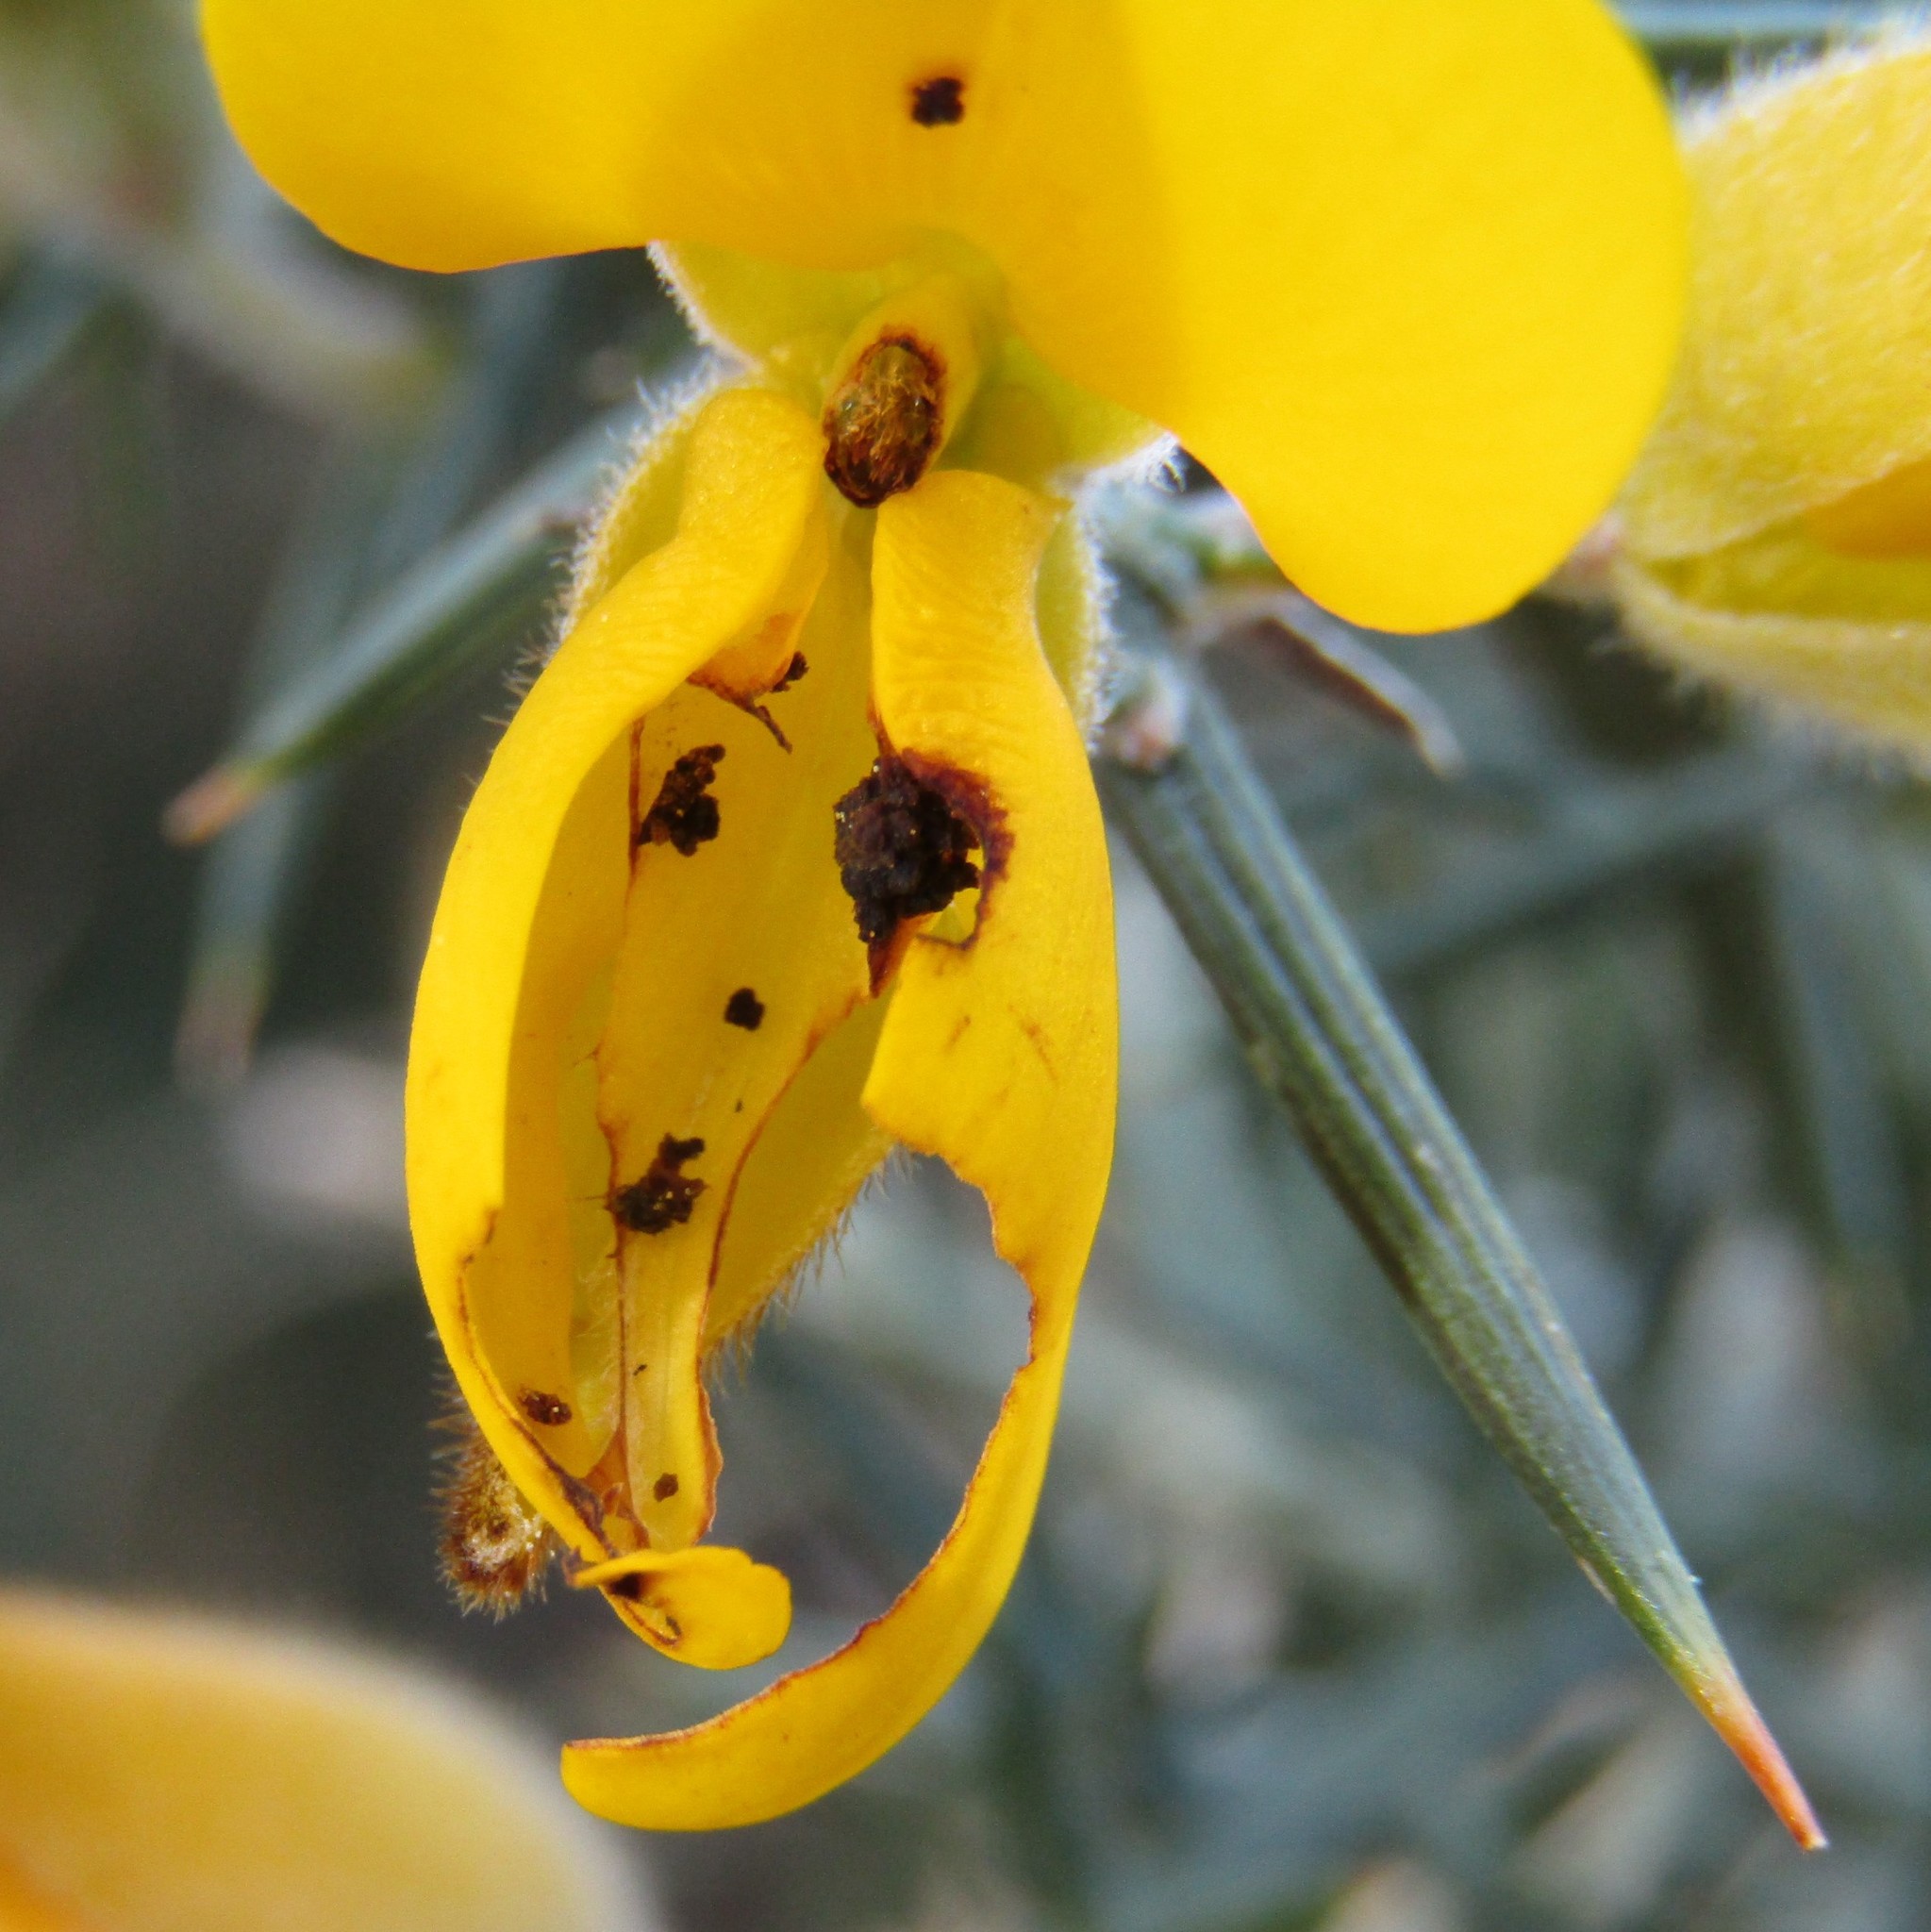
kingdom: Plantae
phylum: Tracheophyta
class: Magnoliopsida
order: Fabales
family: Fabaceae
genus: Ulex
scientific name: Ulex europaeus
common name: Common gorse
